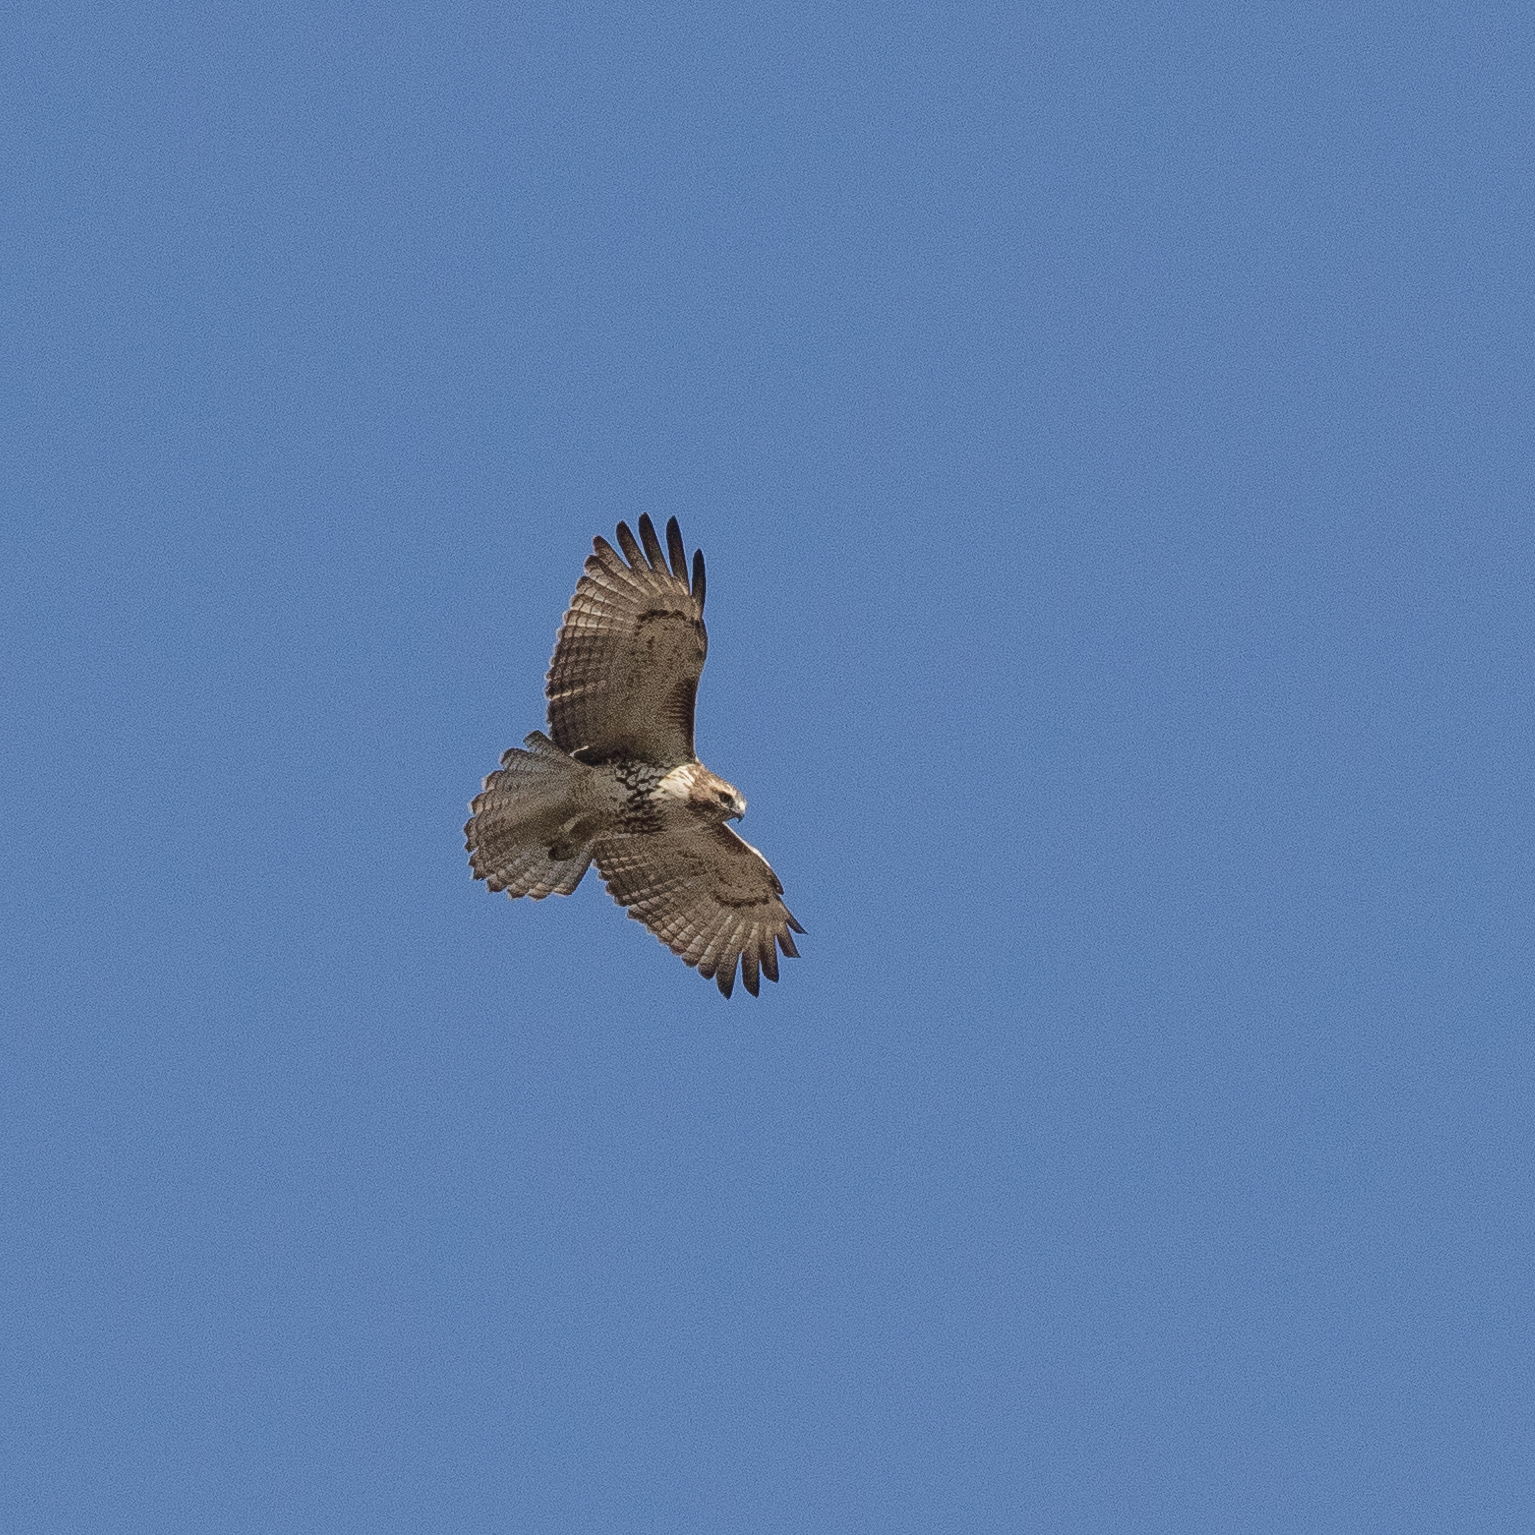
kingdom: Animalia
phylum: Chordata
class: Aves
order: Accipitriformes
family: Accipitridae
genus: Buteo
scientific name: Buteo jamaicensis
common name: Red-tailed hawk
